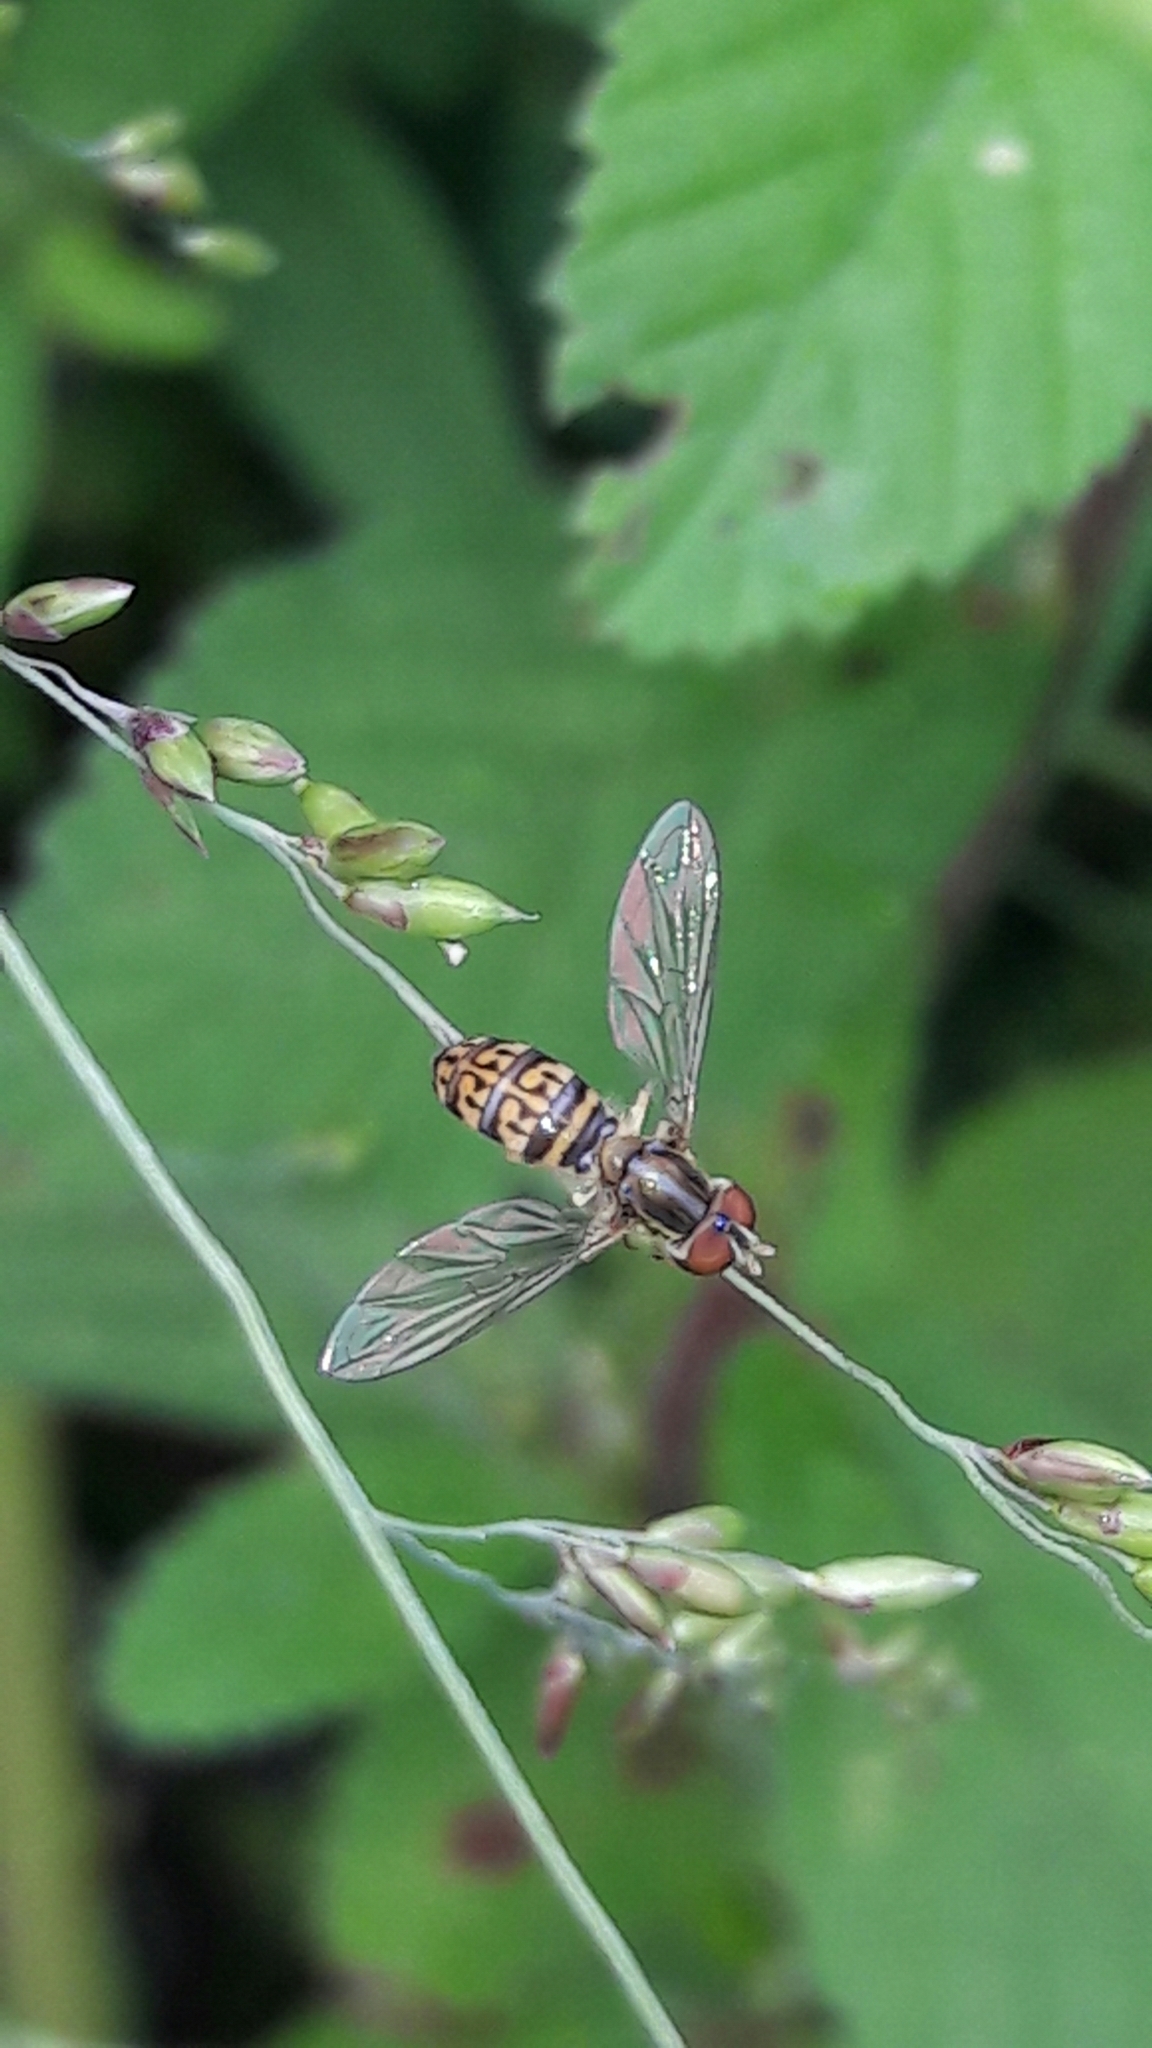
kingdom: Animalia
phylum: Arthropoda
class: Insecta
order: Diptera
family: Syrphidae
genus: Toxomerus
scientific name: Toxomerus
